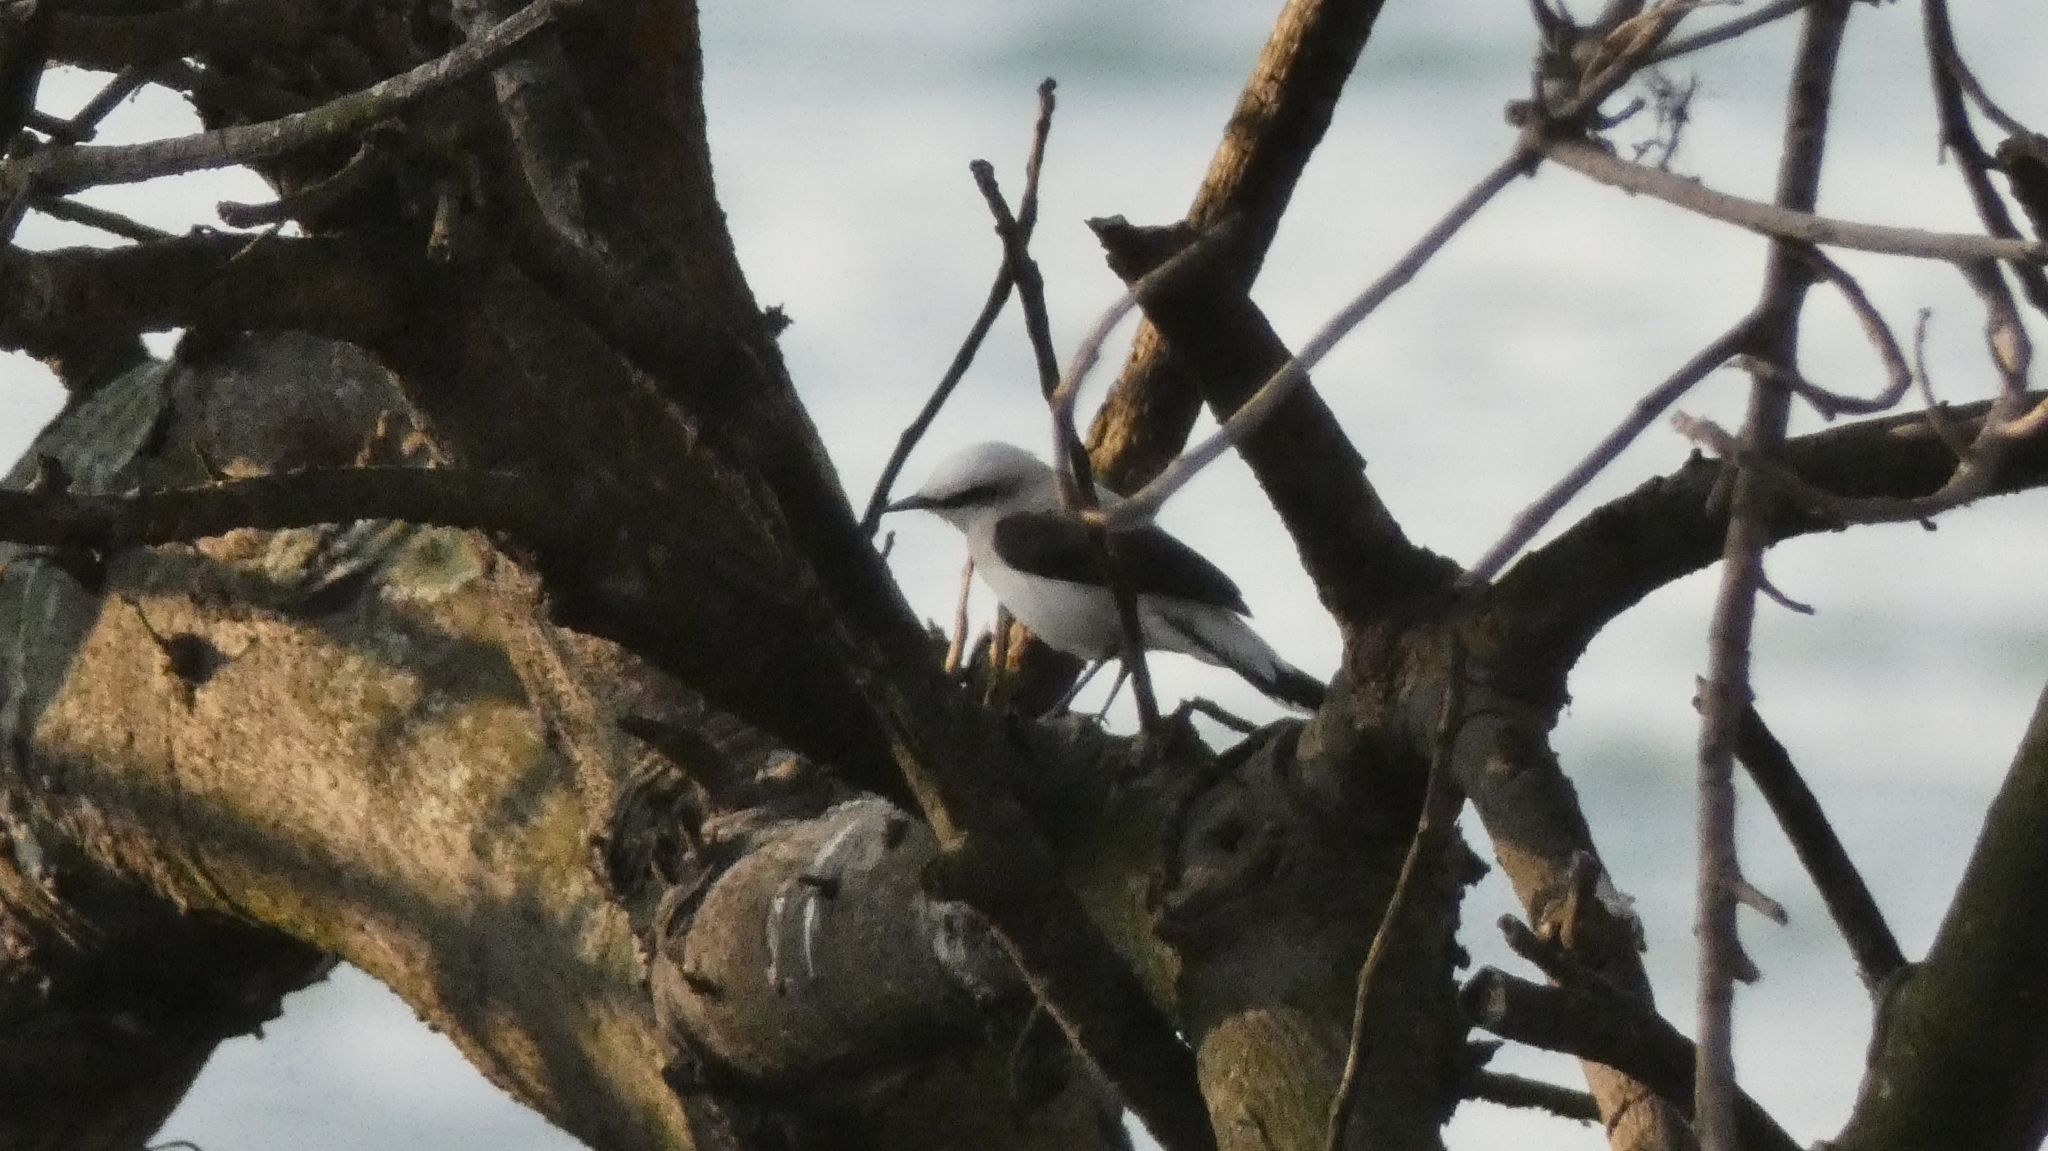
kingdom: Animalia
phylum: Chordata
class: Aves
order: Passeriformes
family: Tyrannidae
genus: Fluvicola
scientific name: Fluvicola nengeta
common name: Masked water tyrant
